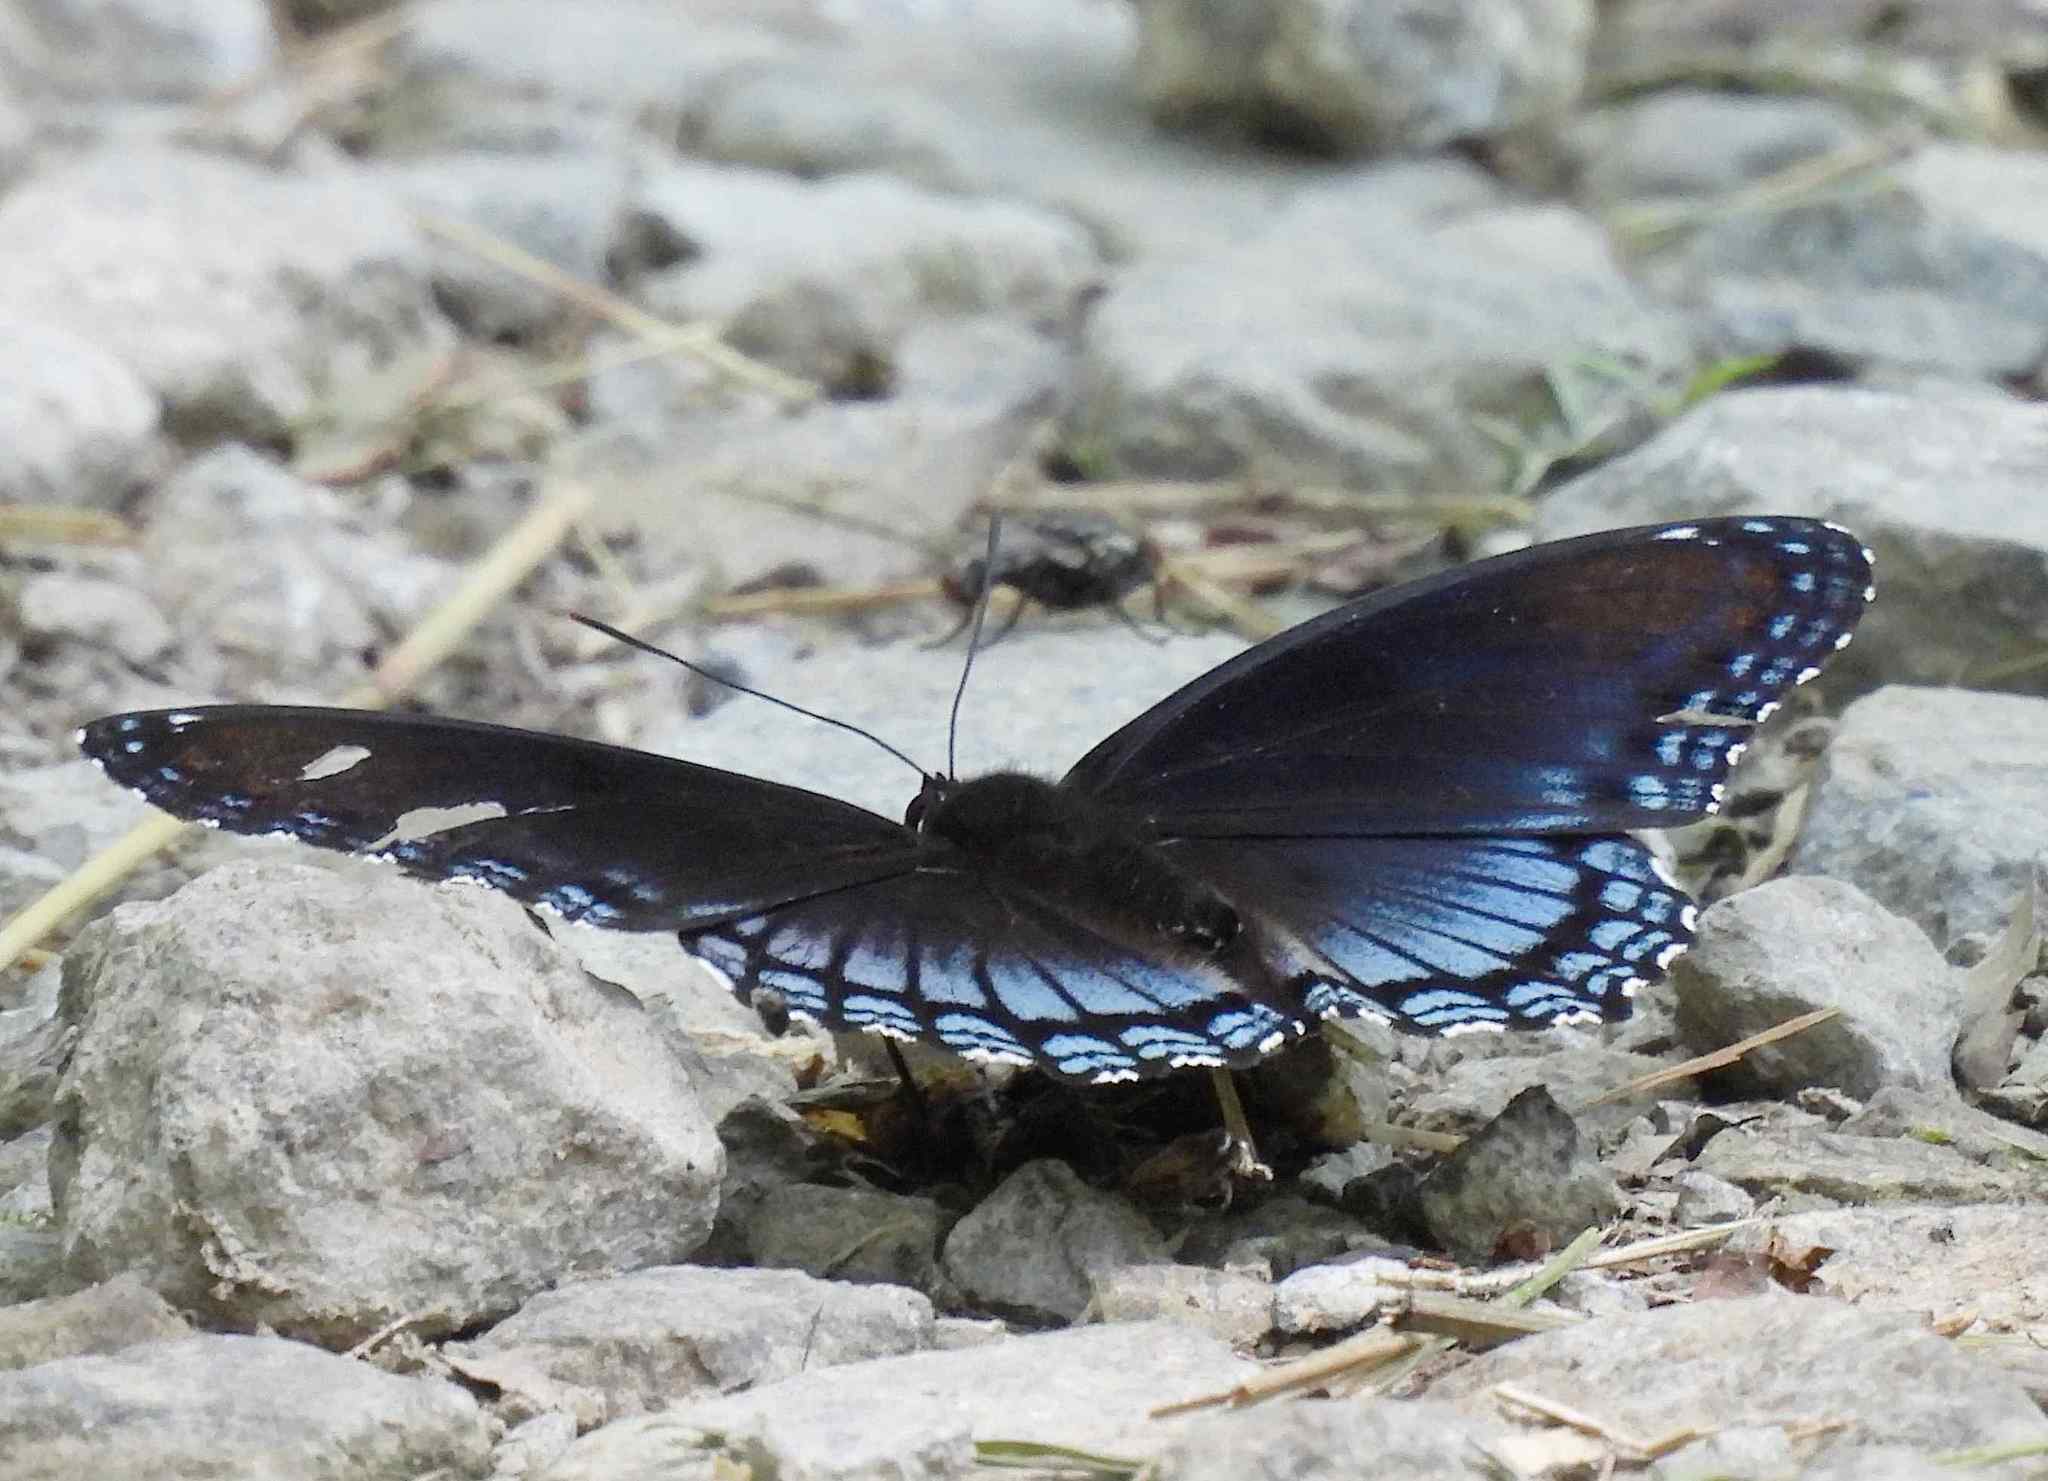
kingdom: Animalia
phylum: Arthropoda
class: Insecta
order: Lepidoptera
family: Nymphalidae
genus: Limenitis
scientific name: Limenitis astyanax
